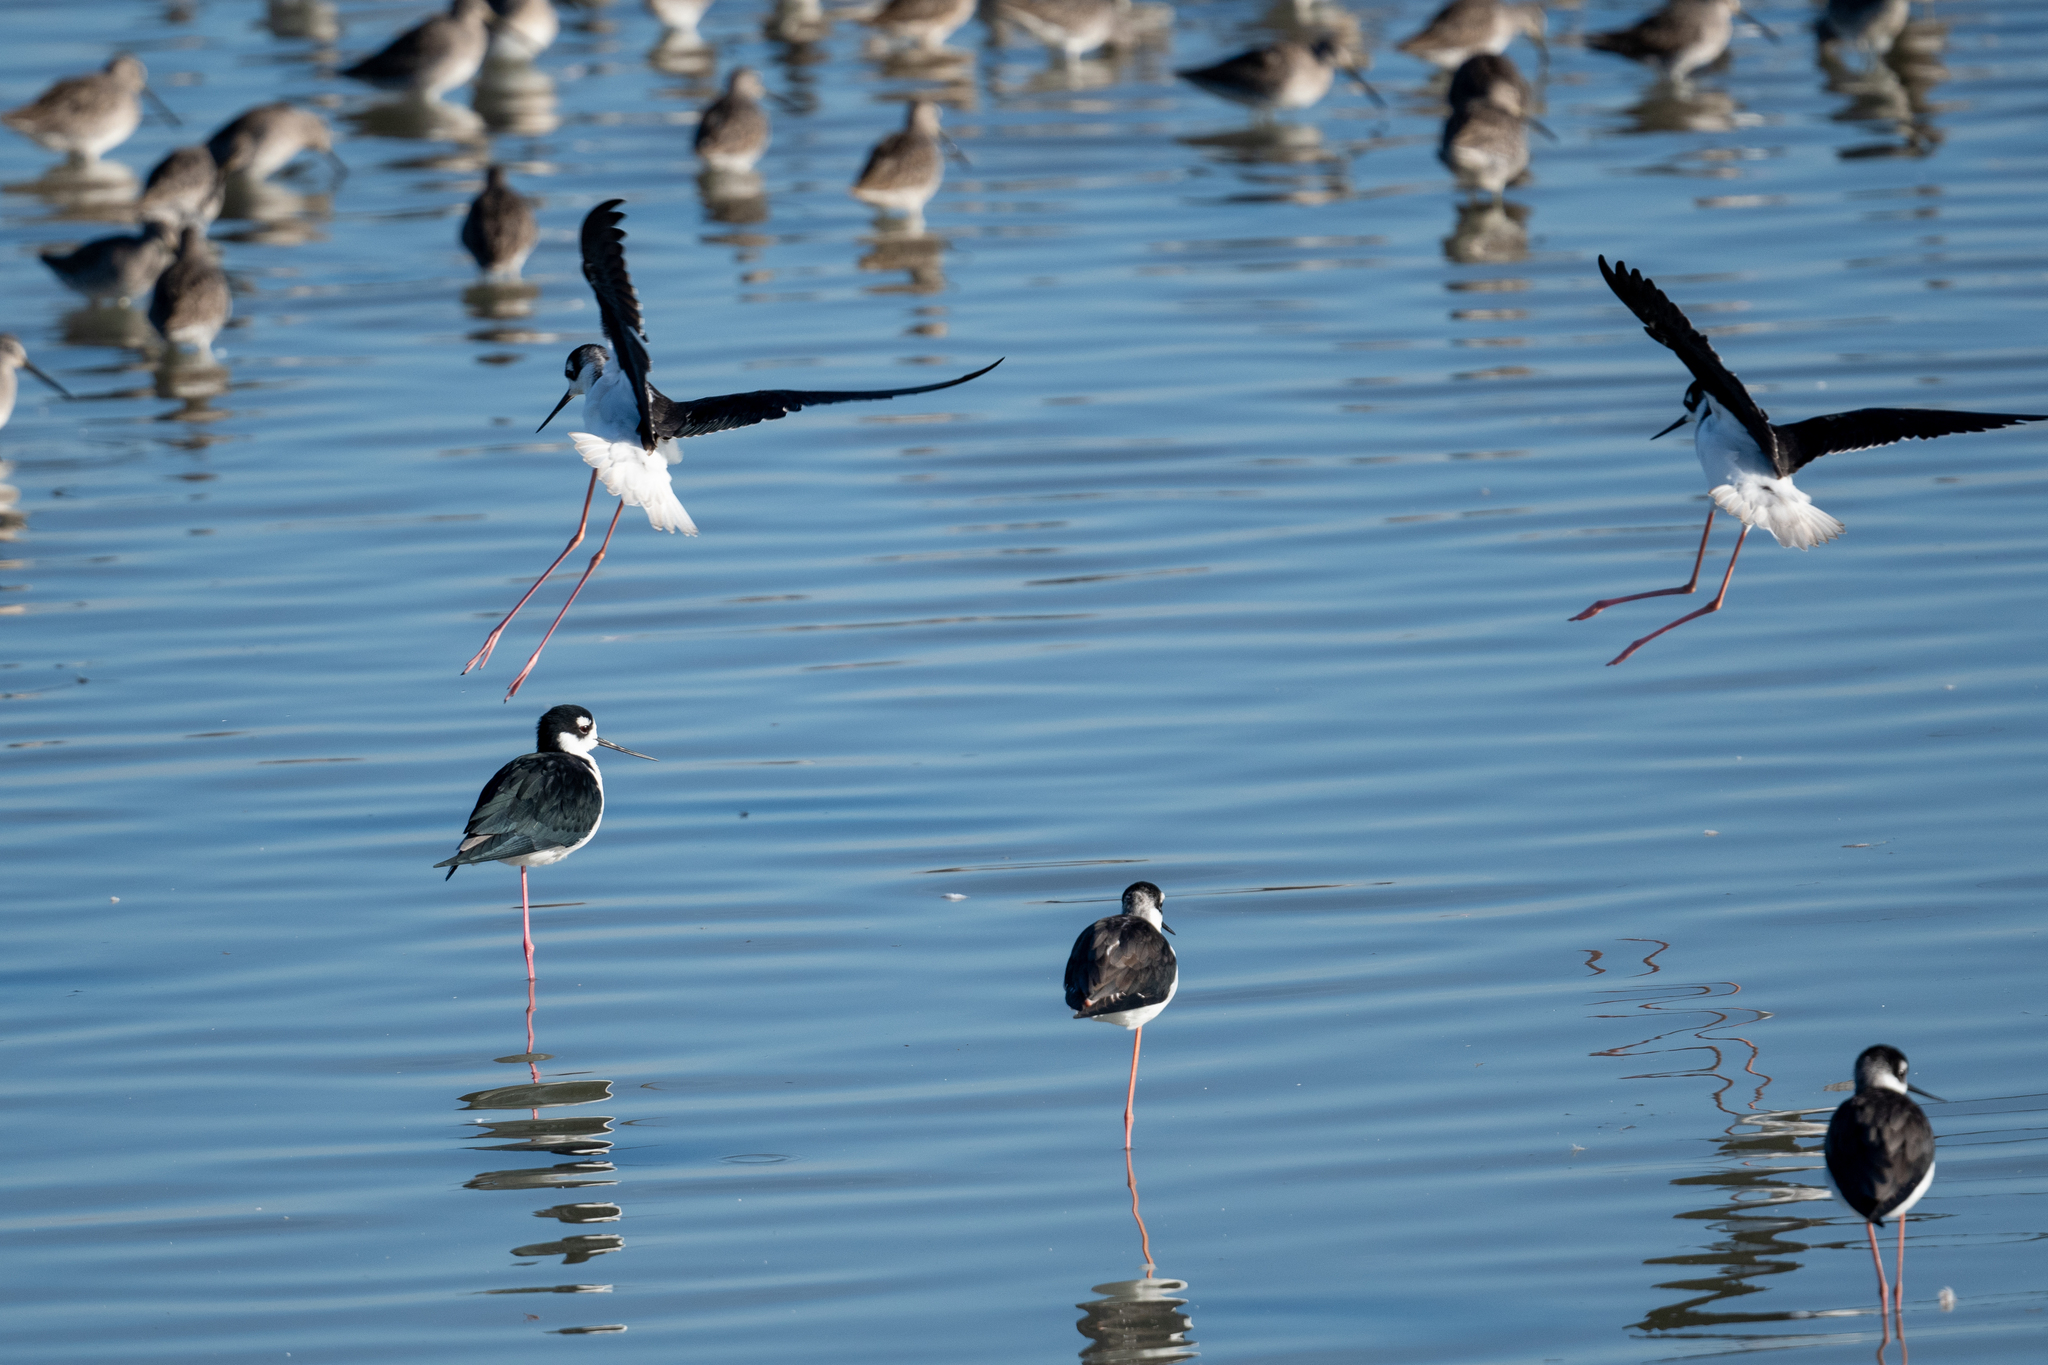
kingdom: Animalia
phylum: Chordata
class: Aves
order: Charadriiformes
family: Recurvirostridae
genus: Himantopus
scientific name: Himantopus mexicanus
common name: Black-necked stilt
